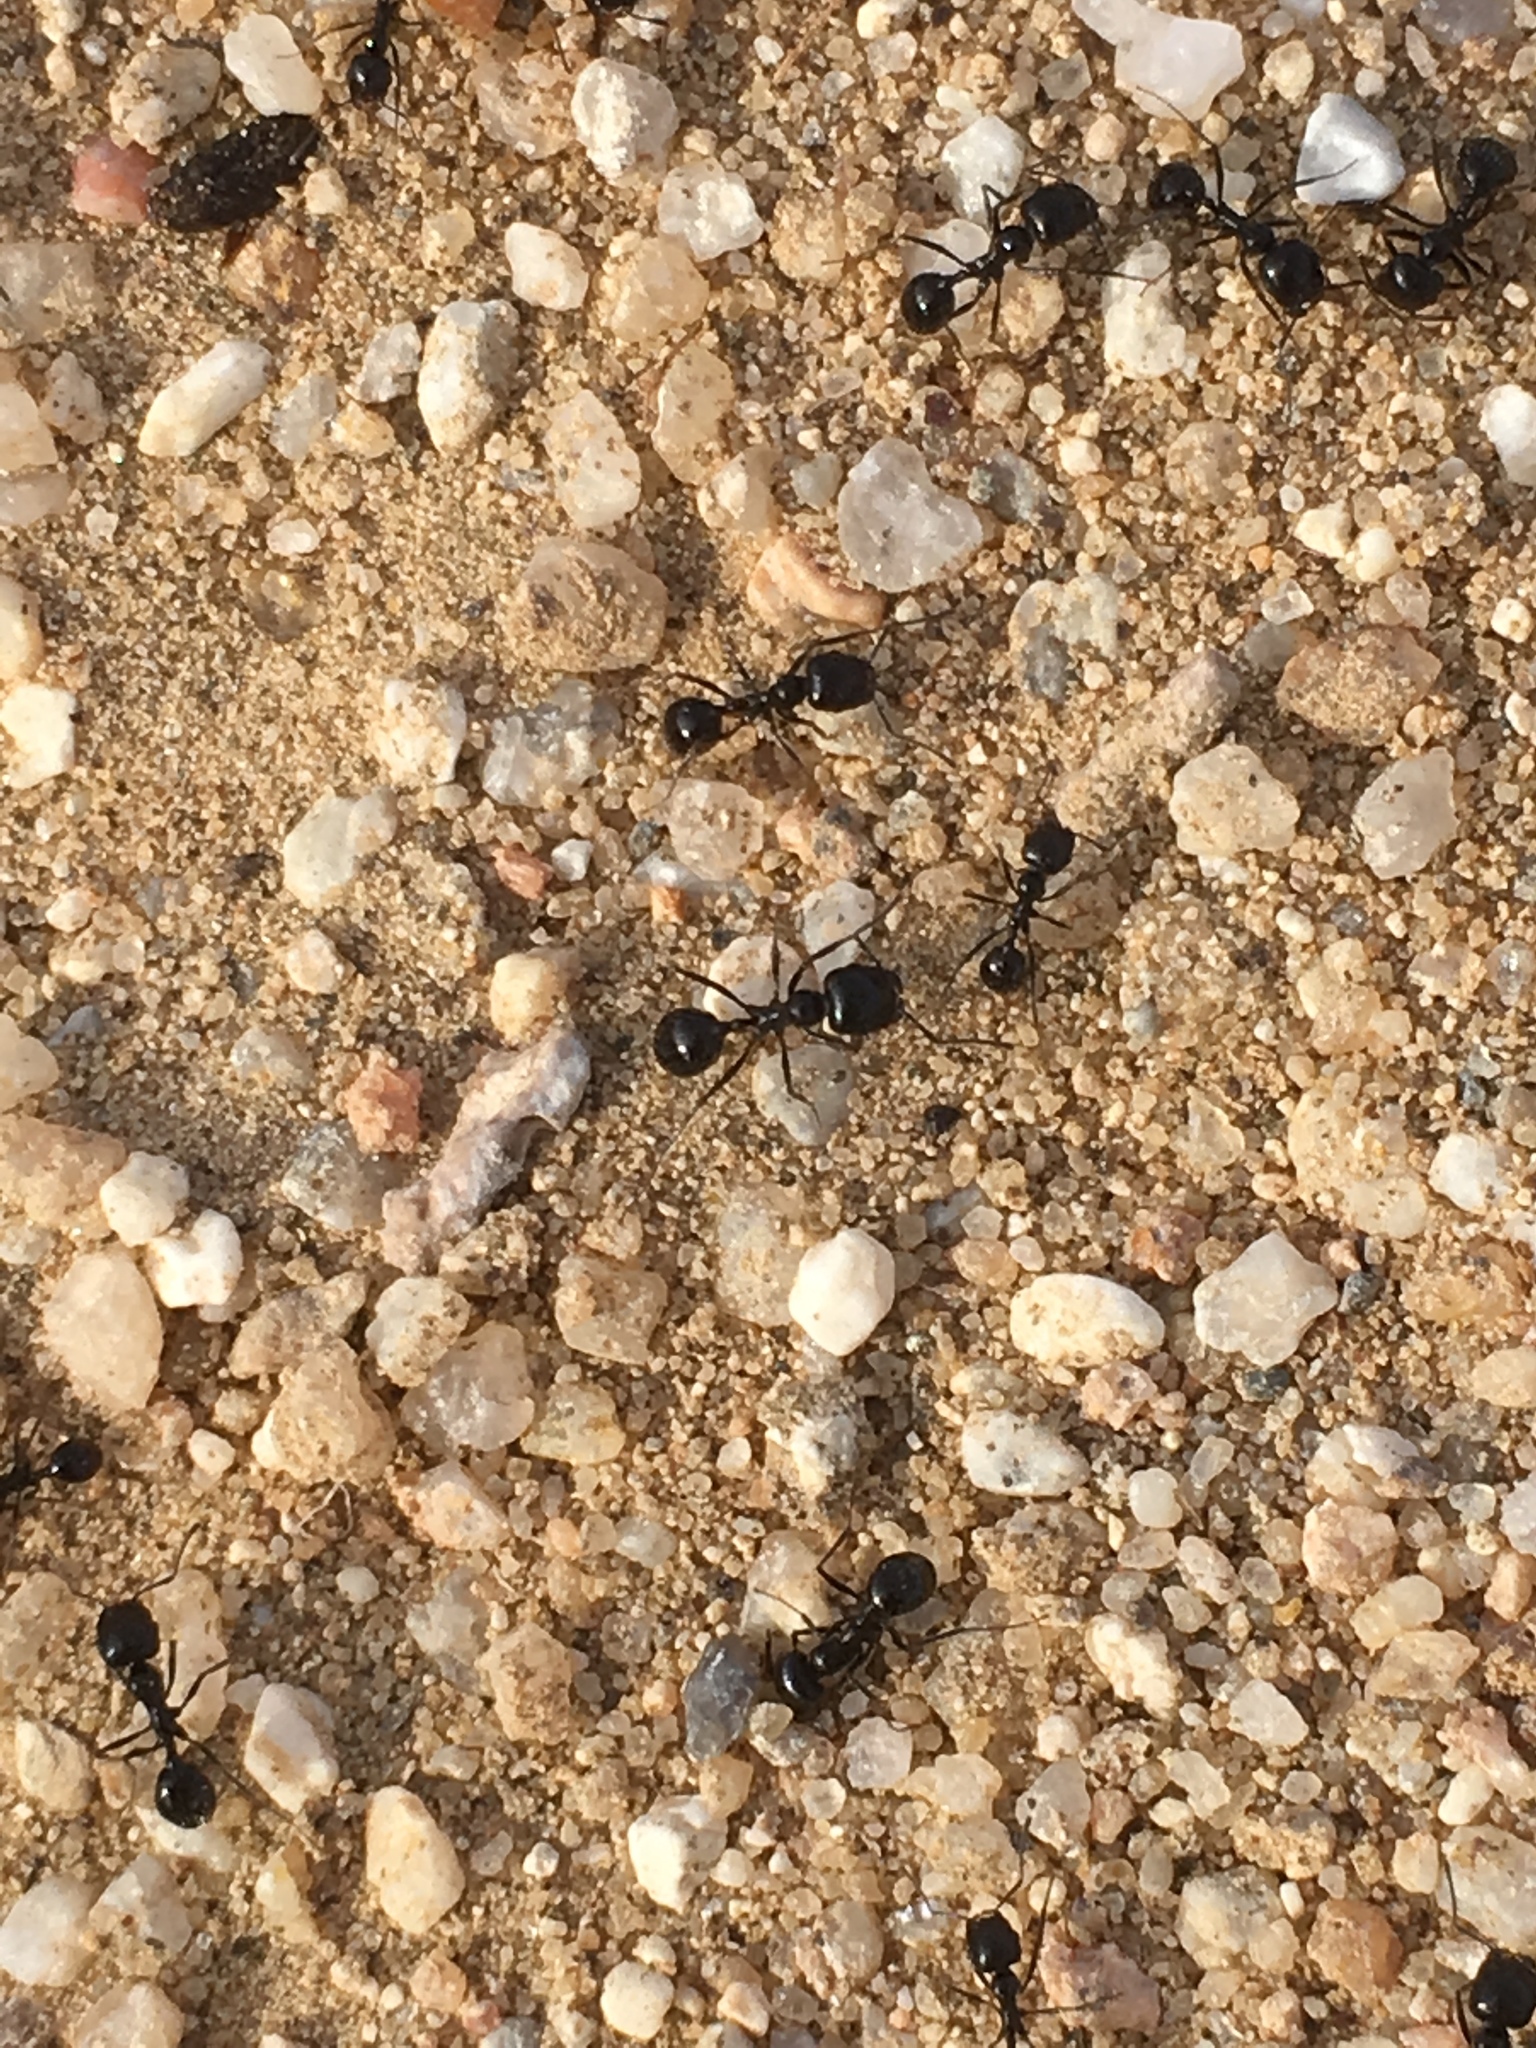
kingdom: Animalia
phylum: Arthropoda
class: Insecta
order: Hymenoptera
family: Formicidae
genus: Messor
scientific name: Messor pergandei
